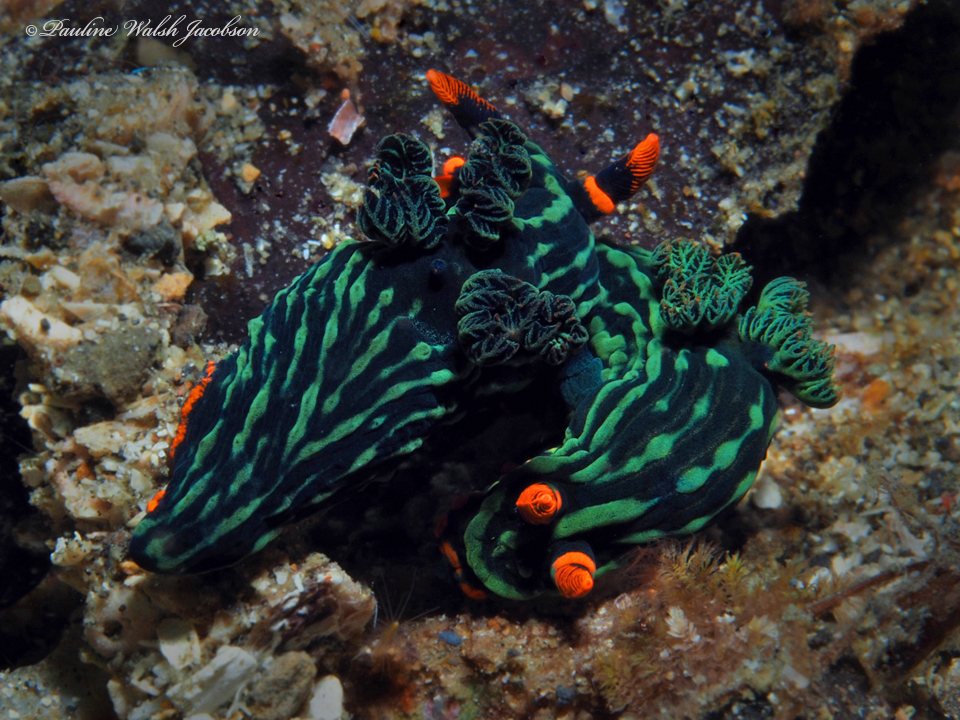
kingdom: Animalia
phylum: Mollusca
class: Gastropoda
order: Nudibranchia
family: Polyceridae
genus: Nembrotha
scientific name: Nembrotha kubaryana
